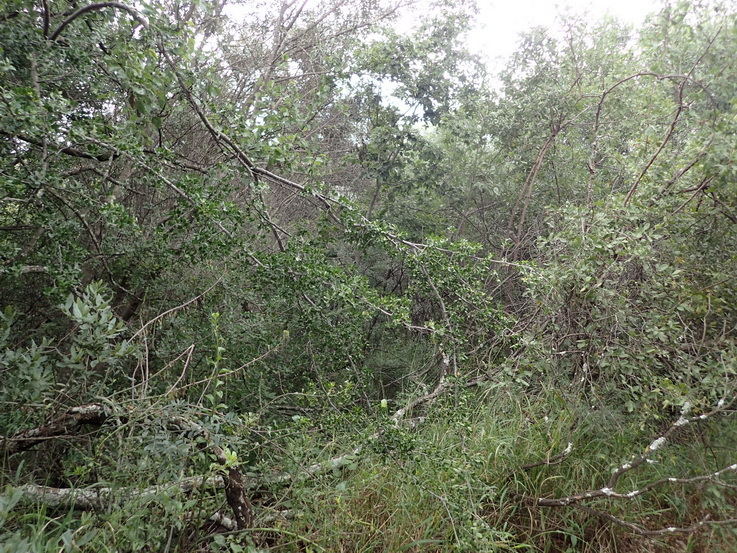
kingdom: Plantae
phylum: Tracheophyta
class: Magnoliopsida
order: Celastrales
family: Celastraceae
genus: Cassine
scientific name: Cassine burkeana
